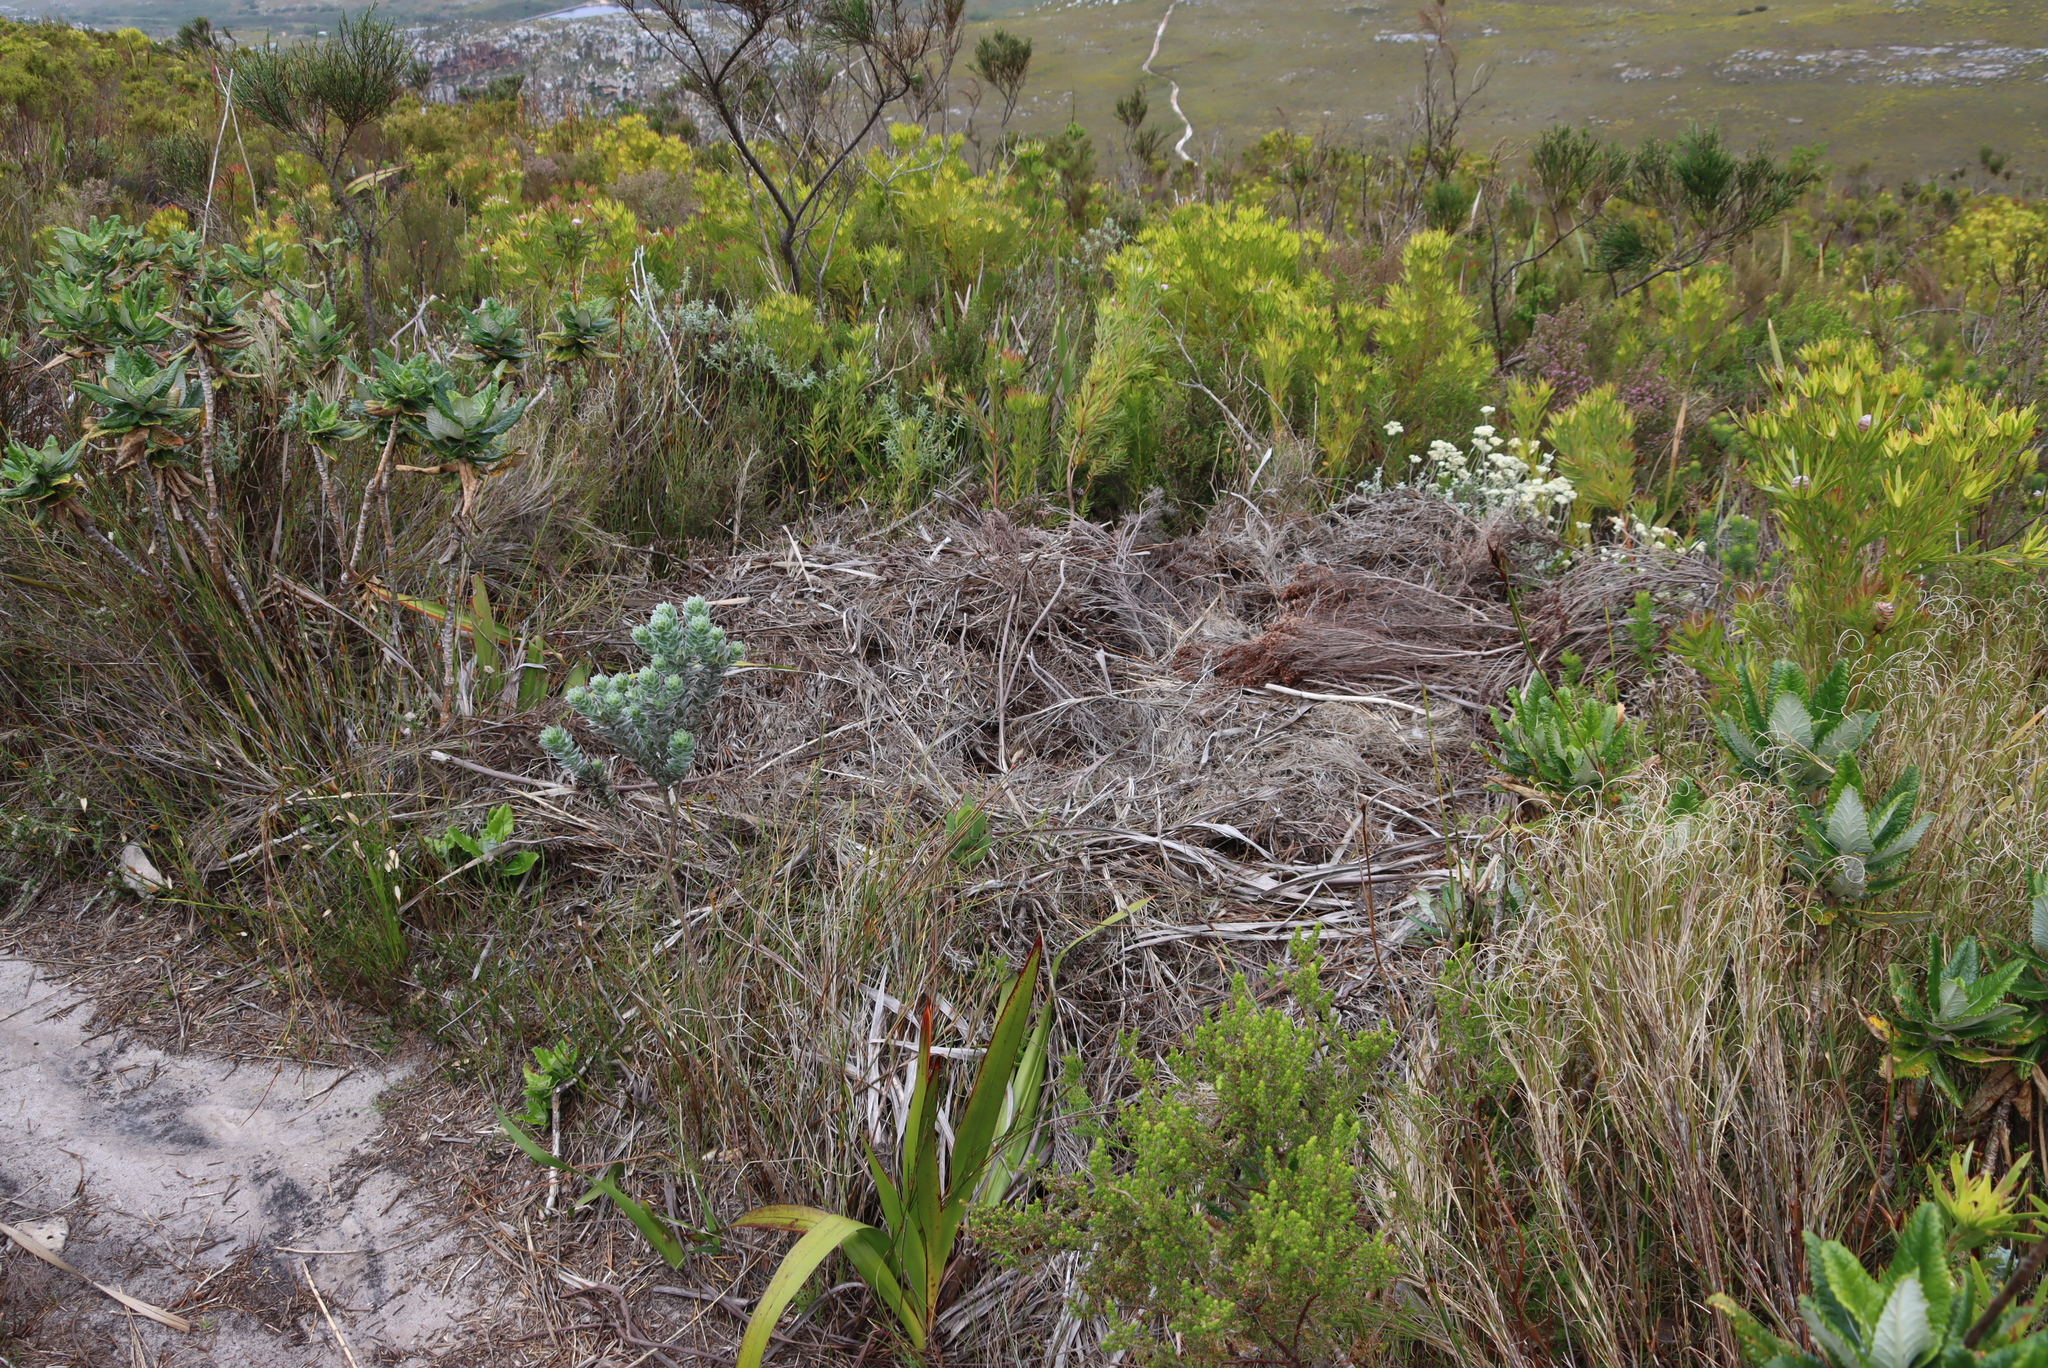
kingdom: Plantae
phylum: Tracheophyta
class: Magnoliopsida
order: Proteales
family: Proteaceae
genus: Leucadendron
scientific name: Leucadendron xanthoconus
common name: Sickle-leaf conebush
